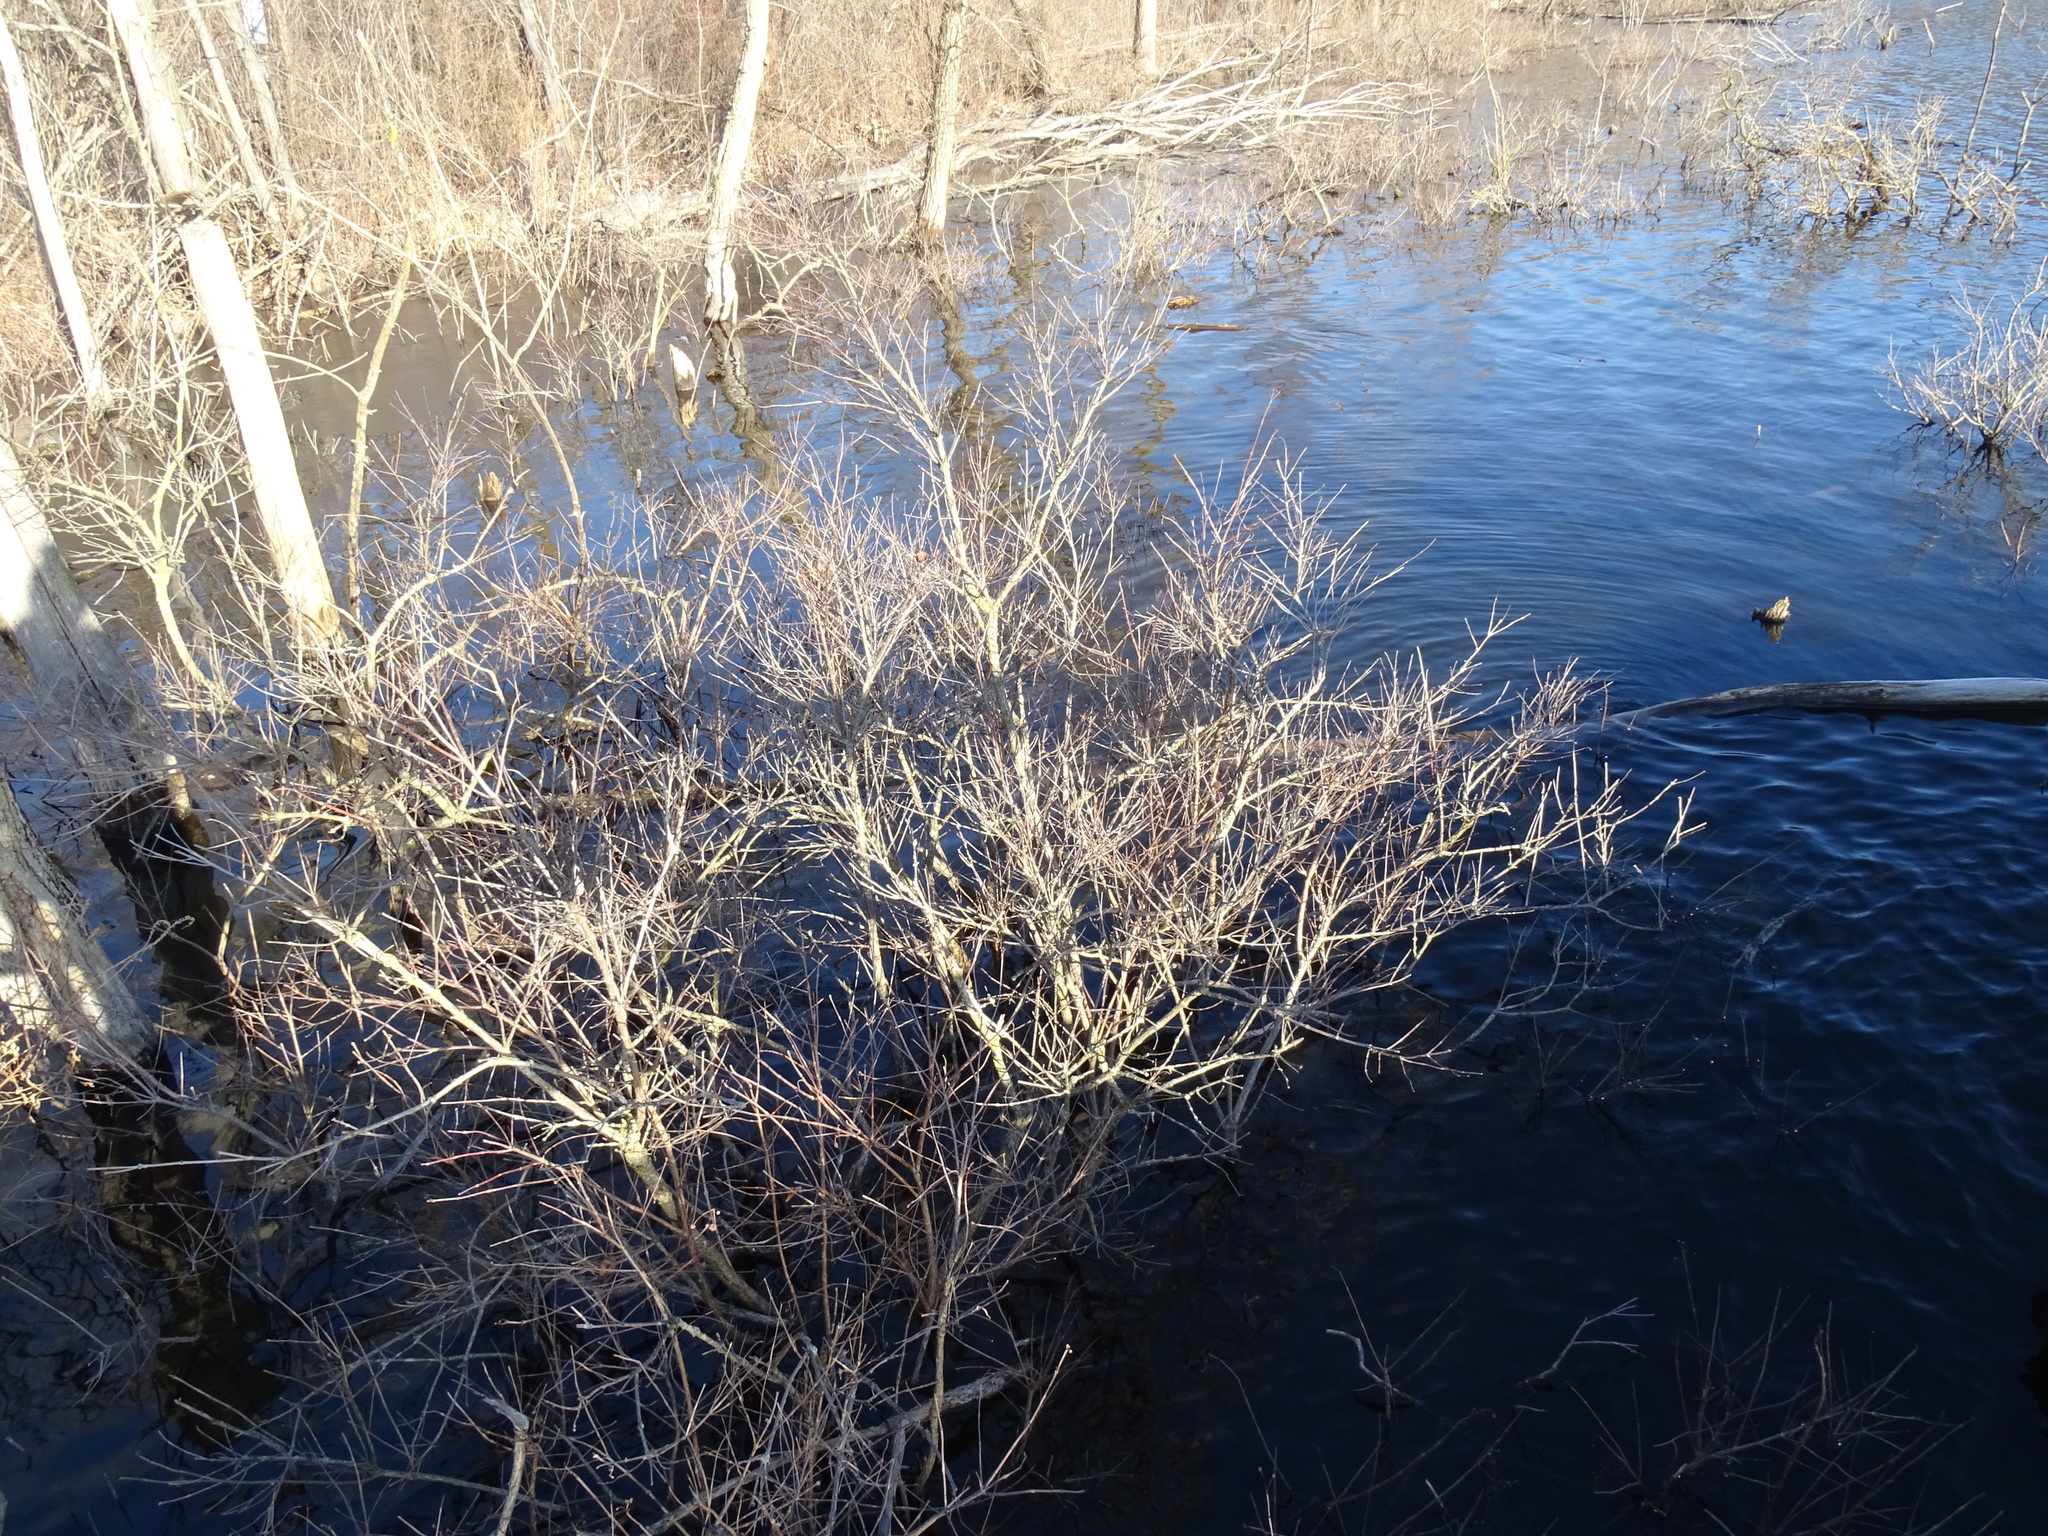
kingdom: Plantae
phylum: Tracheophyta
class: Magnoliopsida
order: Gentianales
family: Rubiaceae
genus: Cephalanthus
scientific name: Cephalanthus occidentalis
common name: Button-willow
